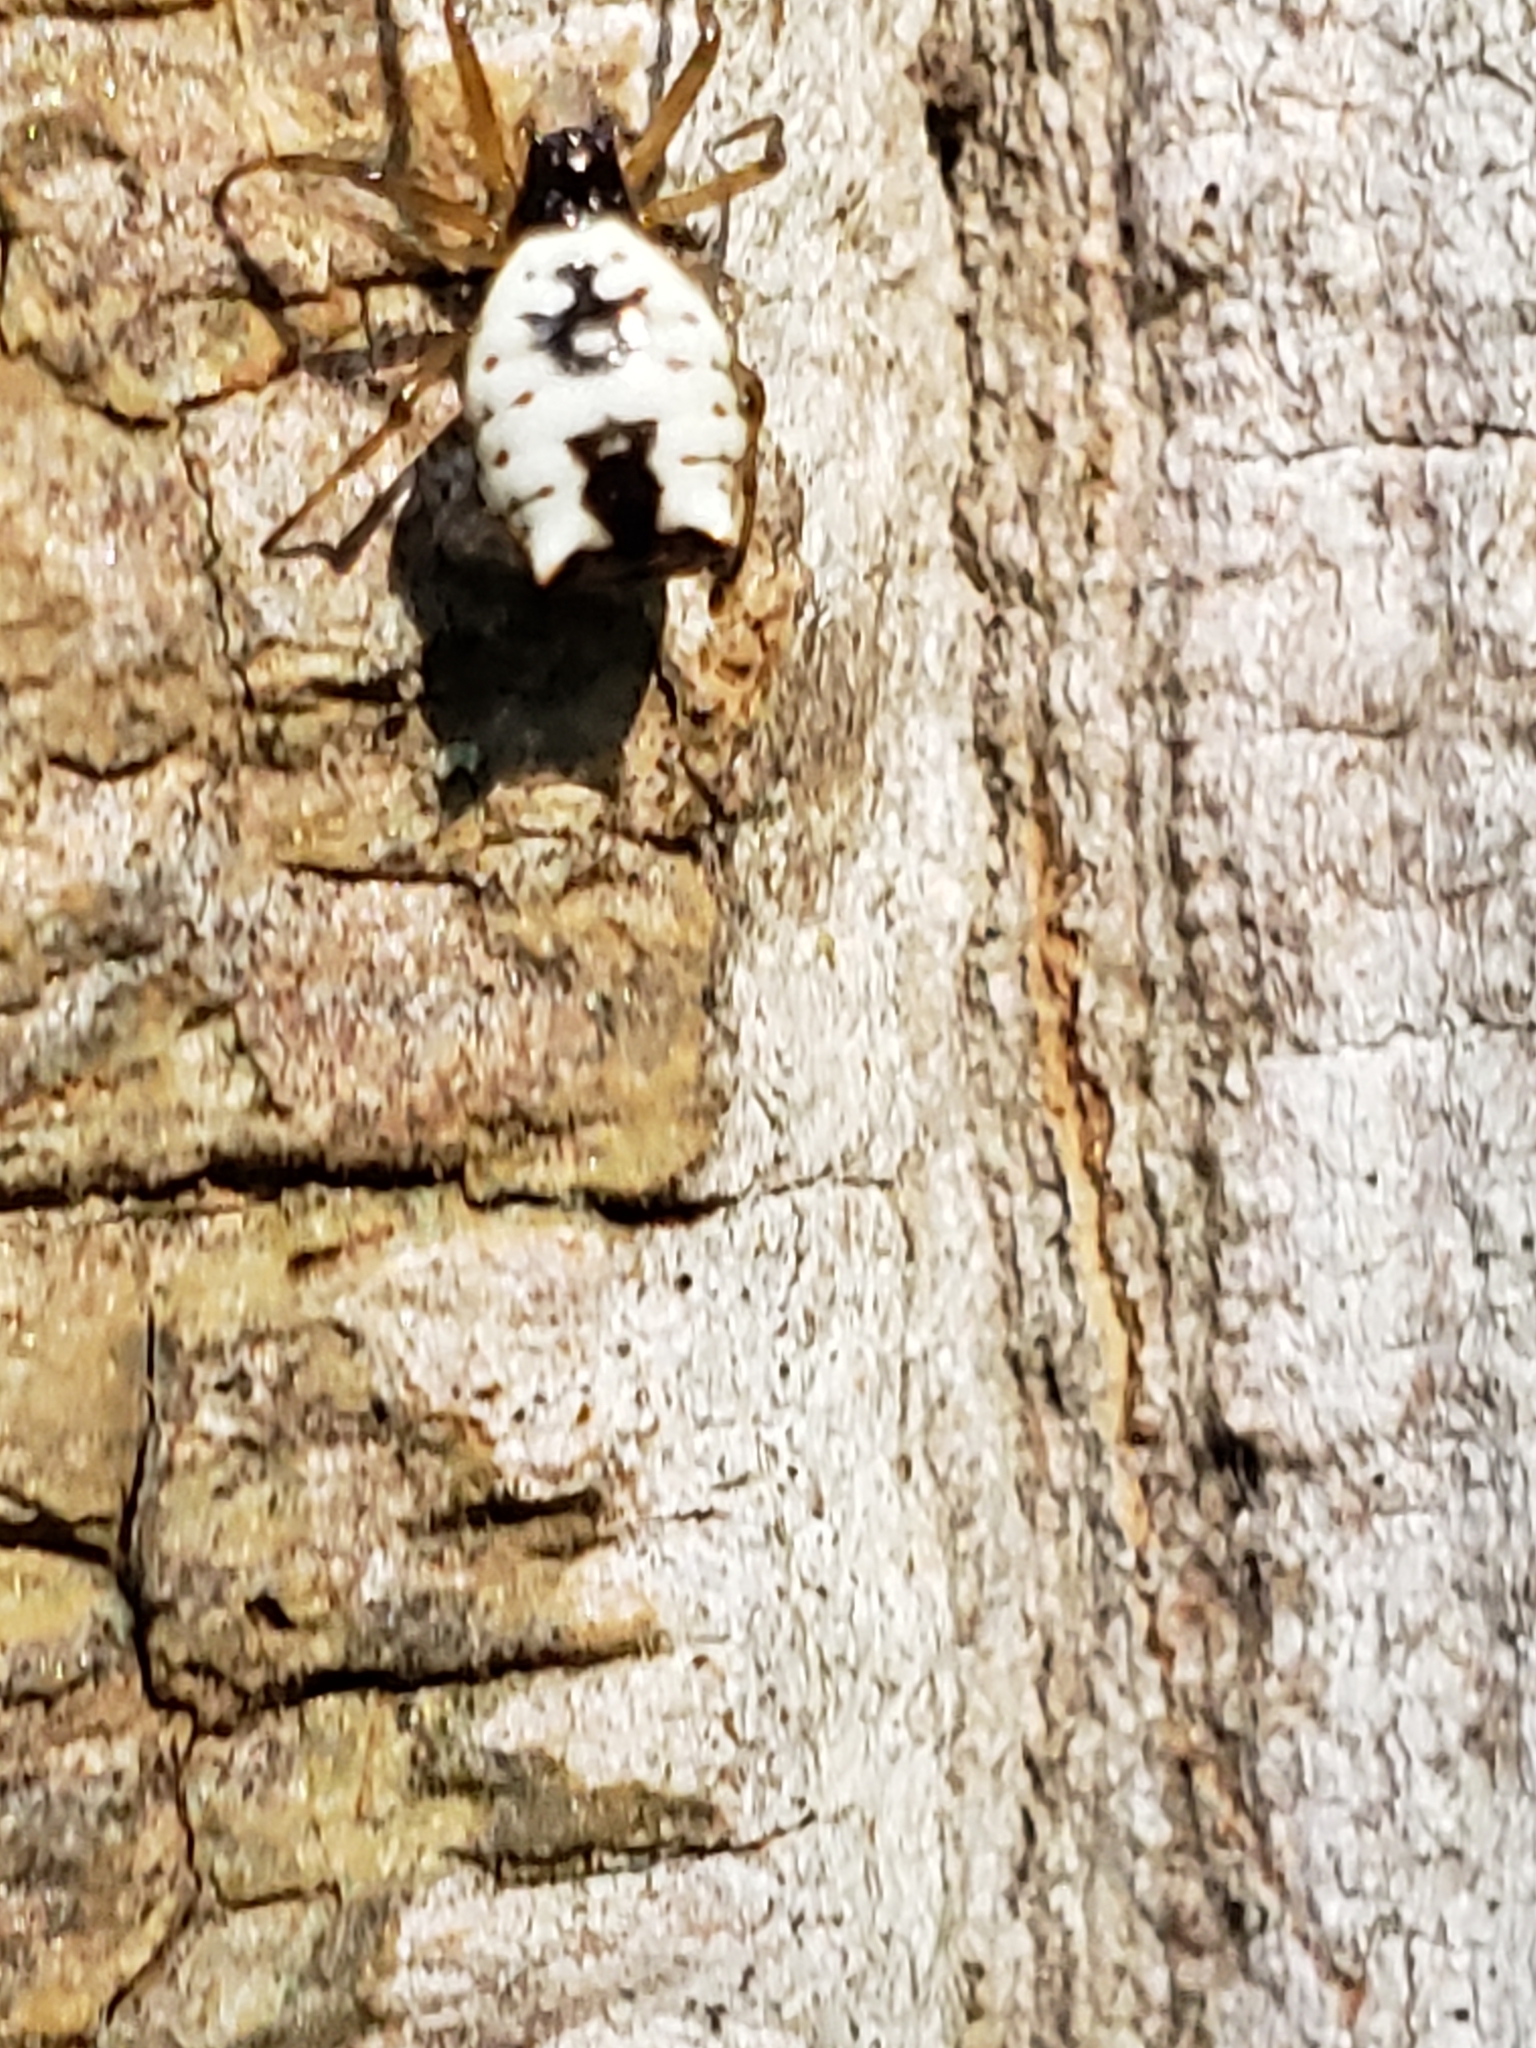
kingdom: Animalia
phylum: Arthropoda
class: Arachnida
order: Araneae
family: Araneidae
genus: Micrathena
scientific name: Micrathena mitrata
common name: Orb weavers
